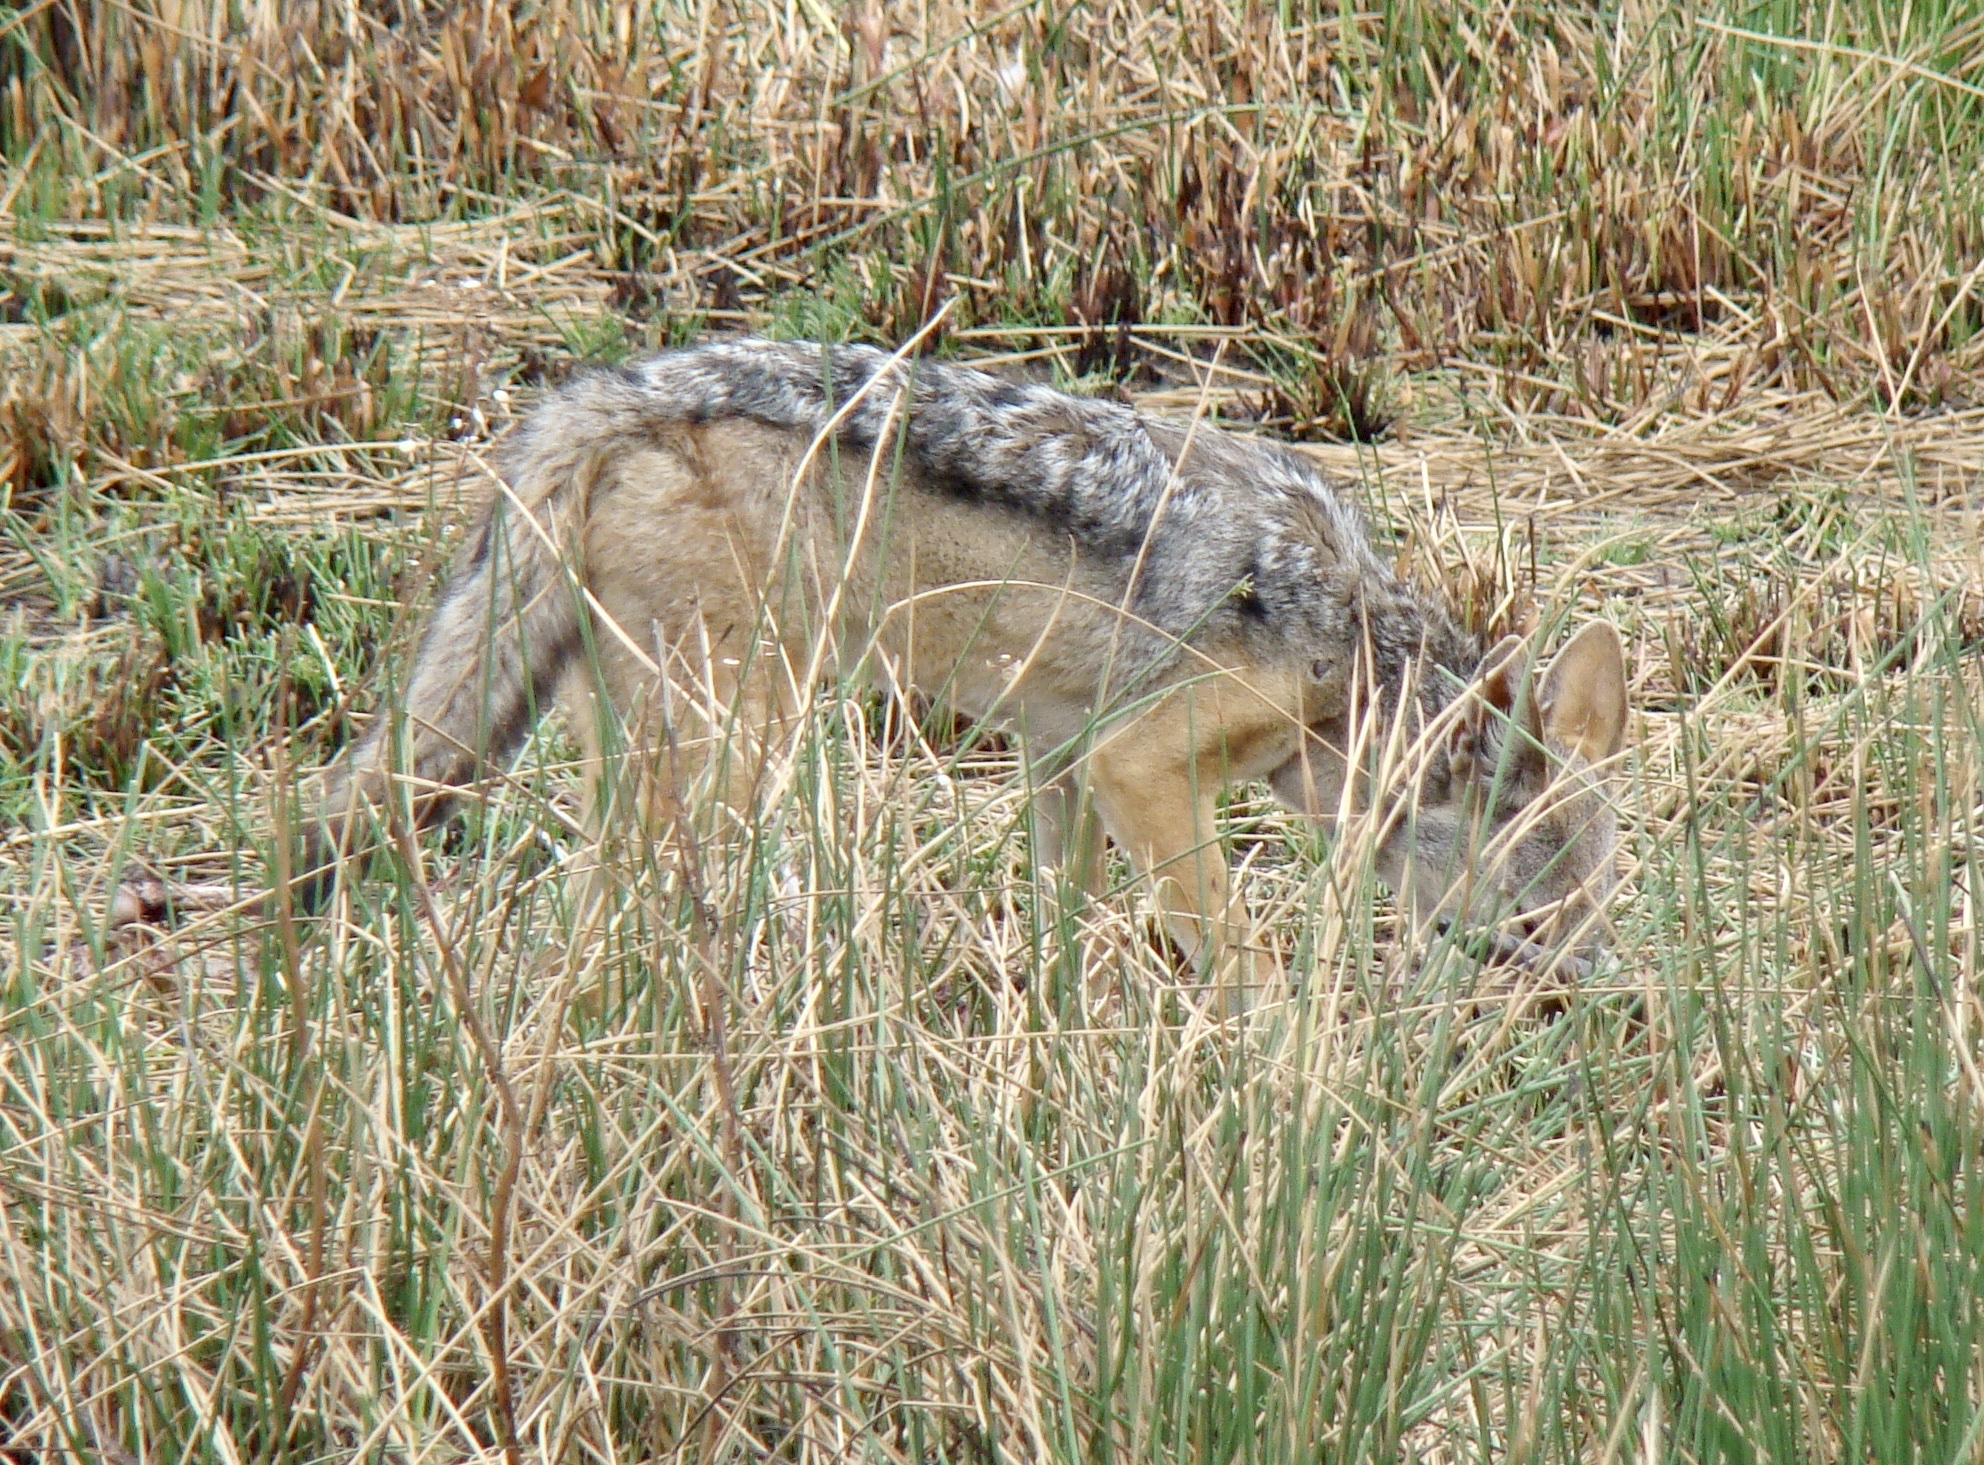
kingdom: Animalia
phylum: Chordata
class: Mammalia
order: Carnivora
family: Canidae
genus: Lupulella
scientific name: Lupulella
